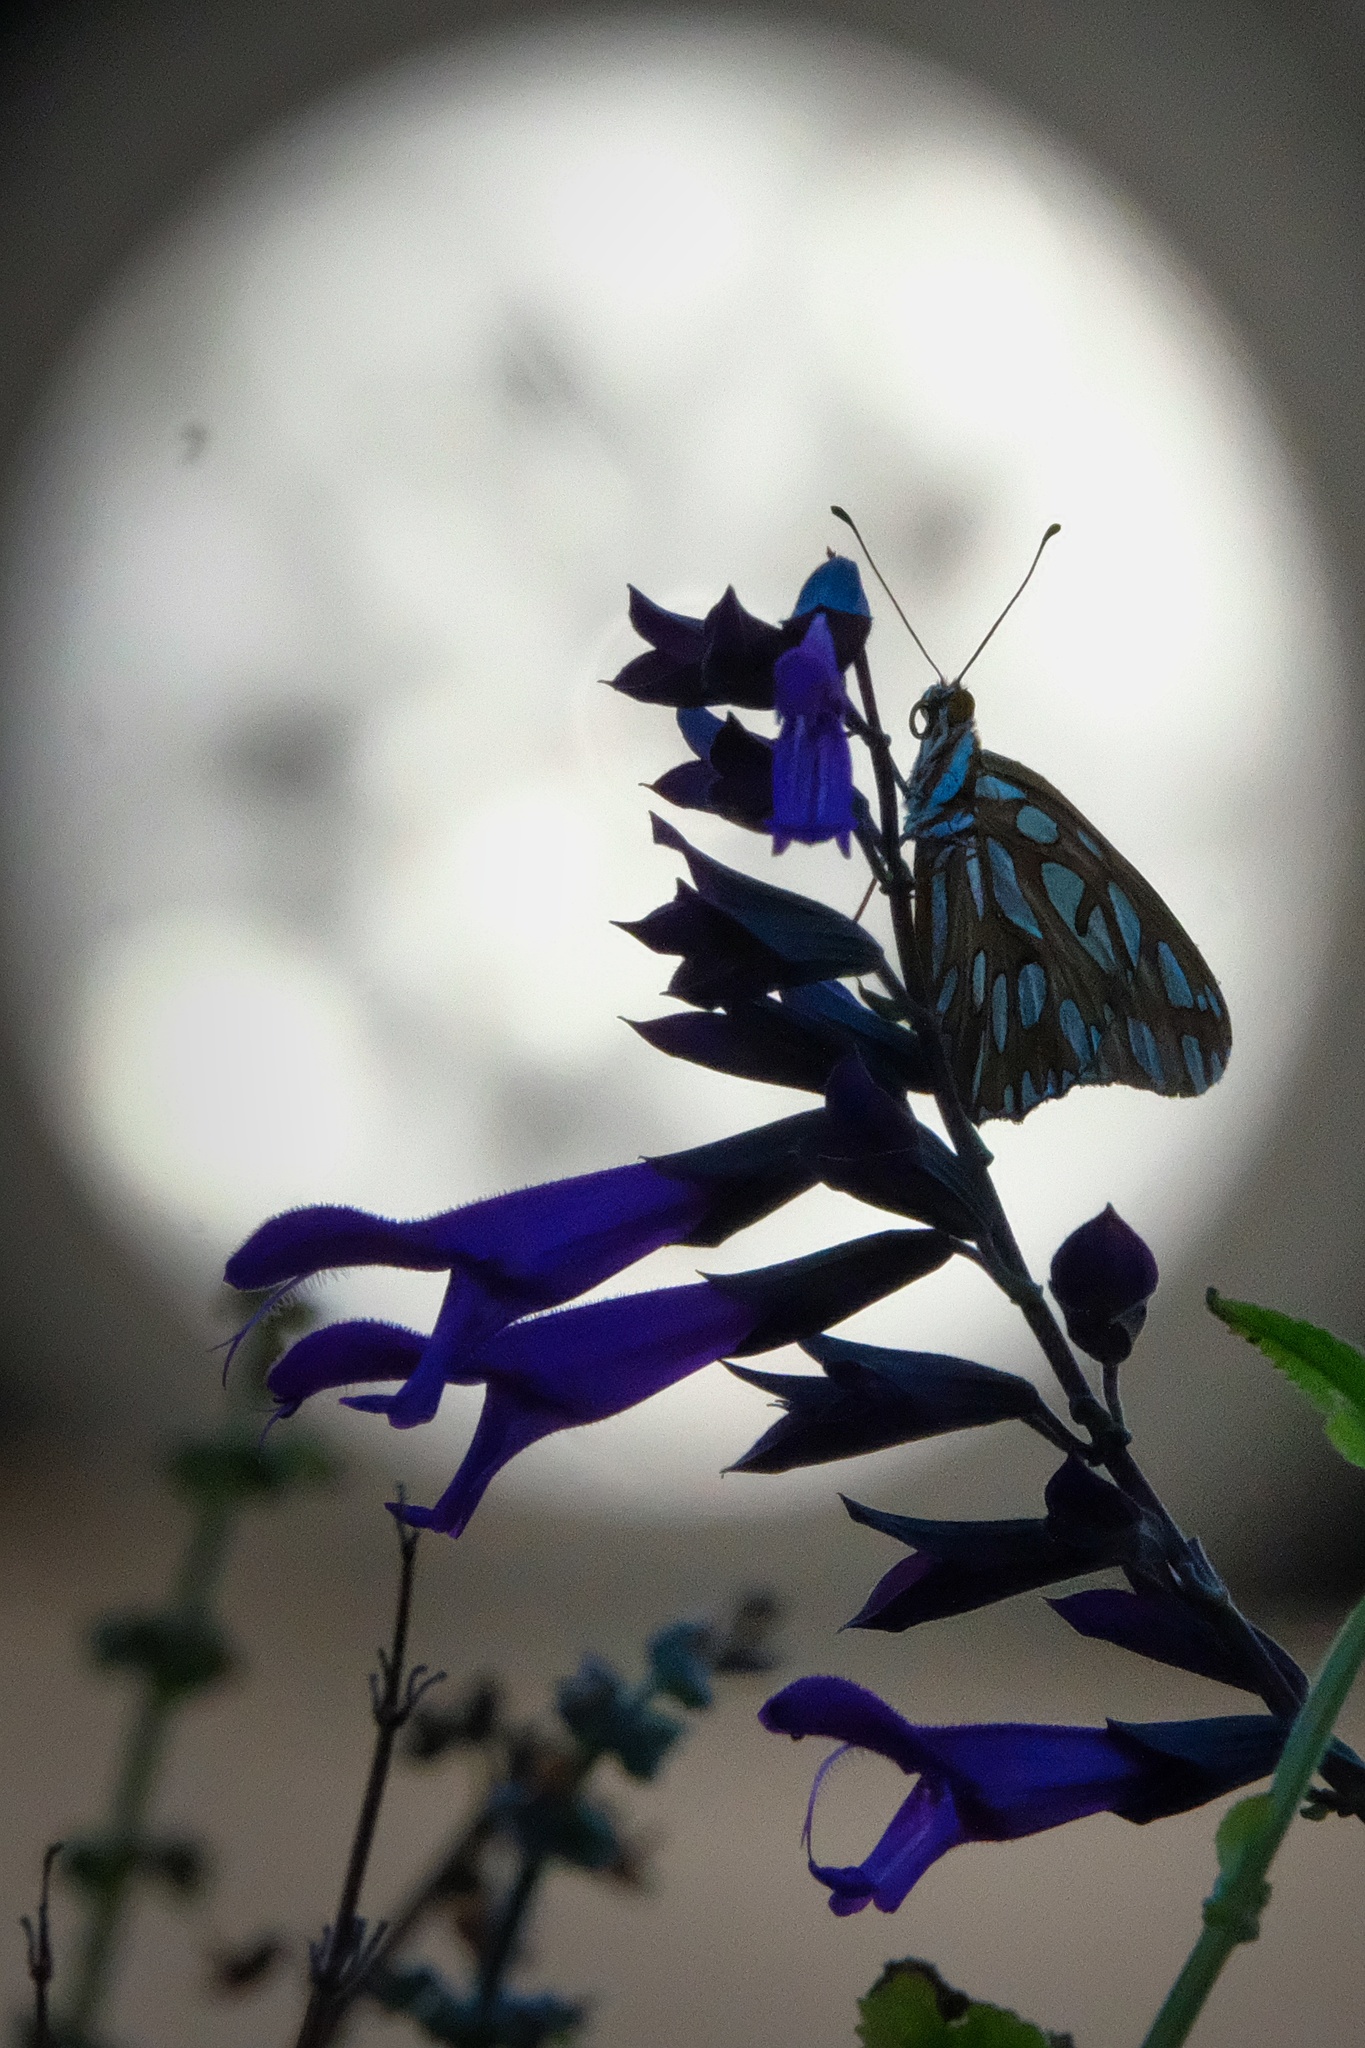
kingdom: Animalia
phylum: Arthropoda
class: Insecta
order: Lepidoptera
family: Nymphalidae
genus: Dione
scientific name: Dione vanillae
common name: Gulf fritillary
